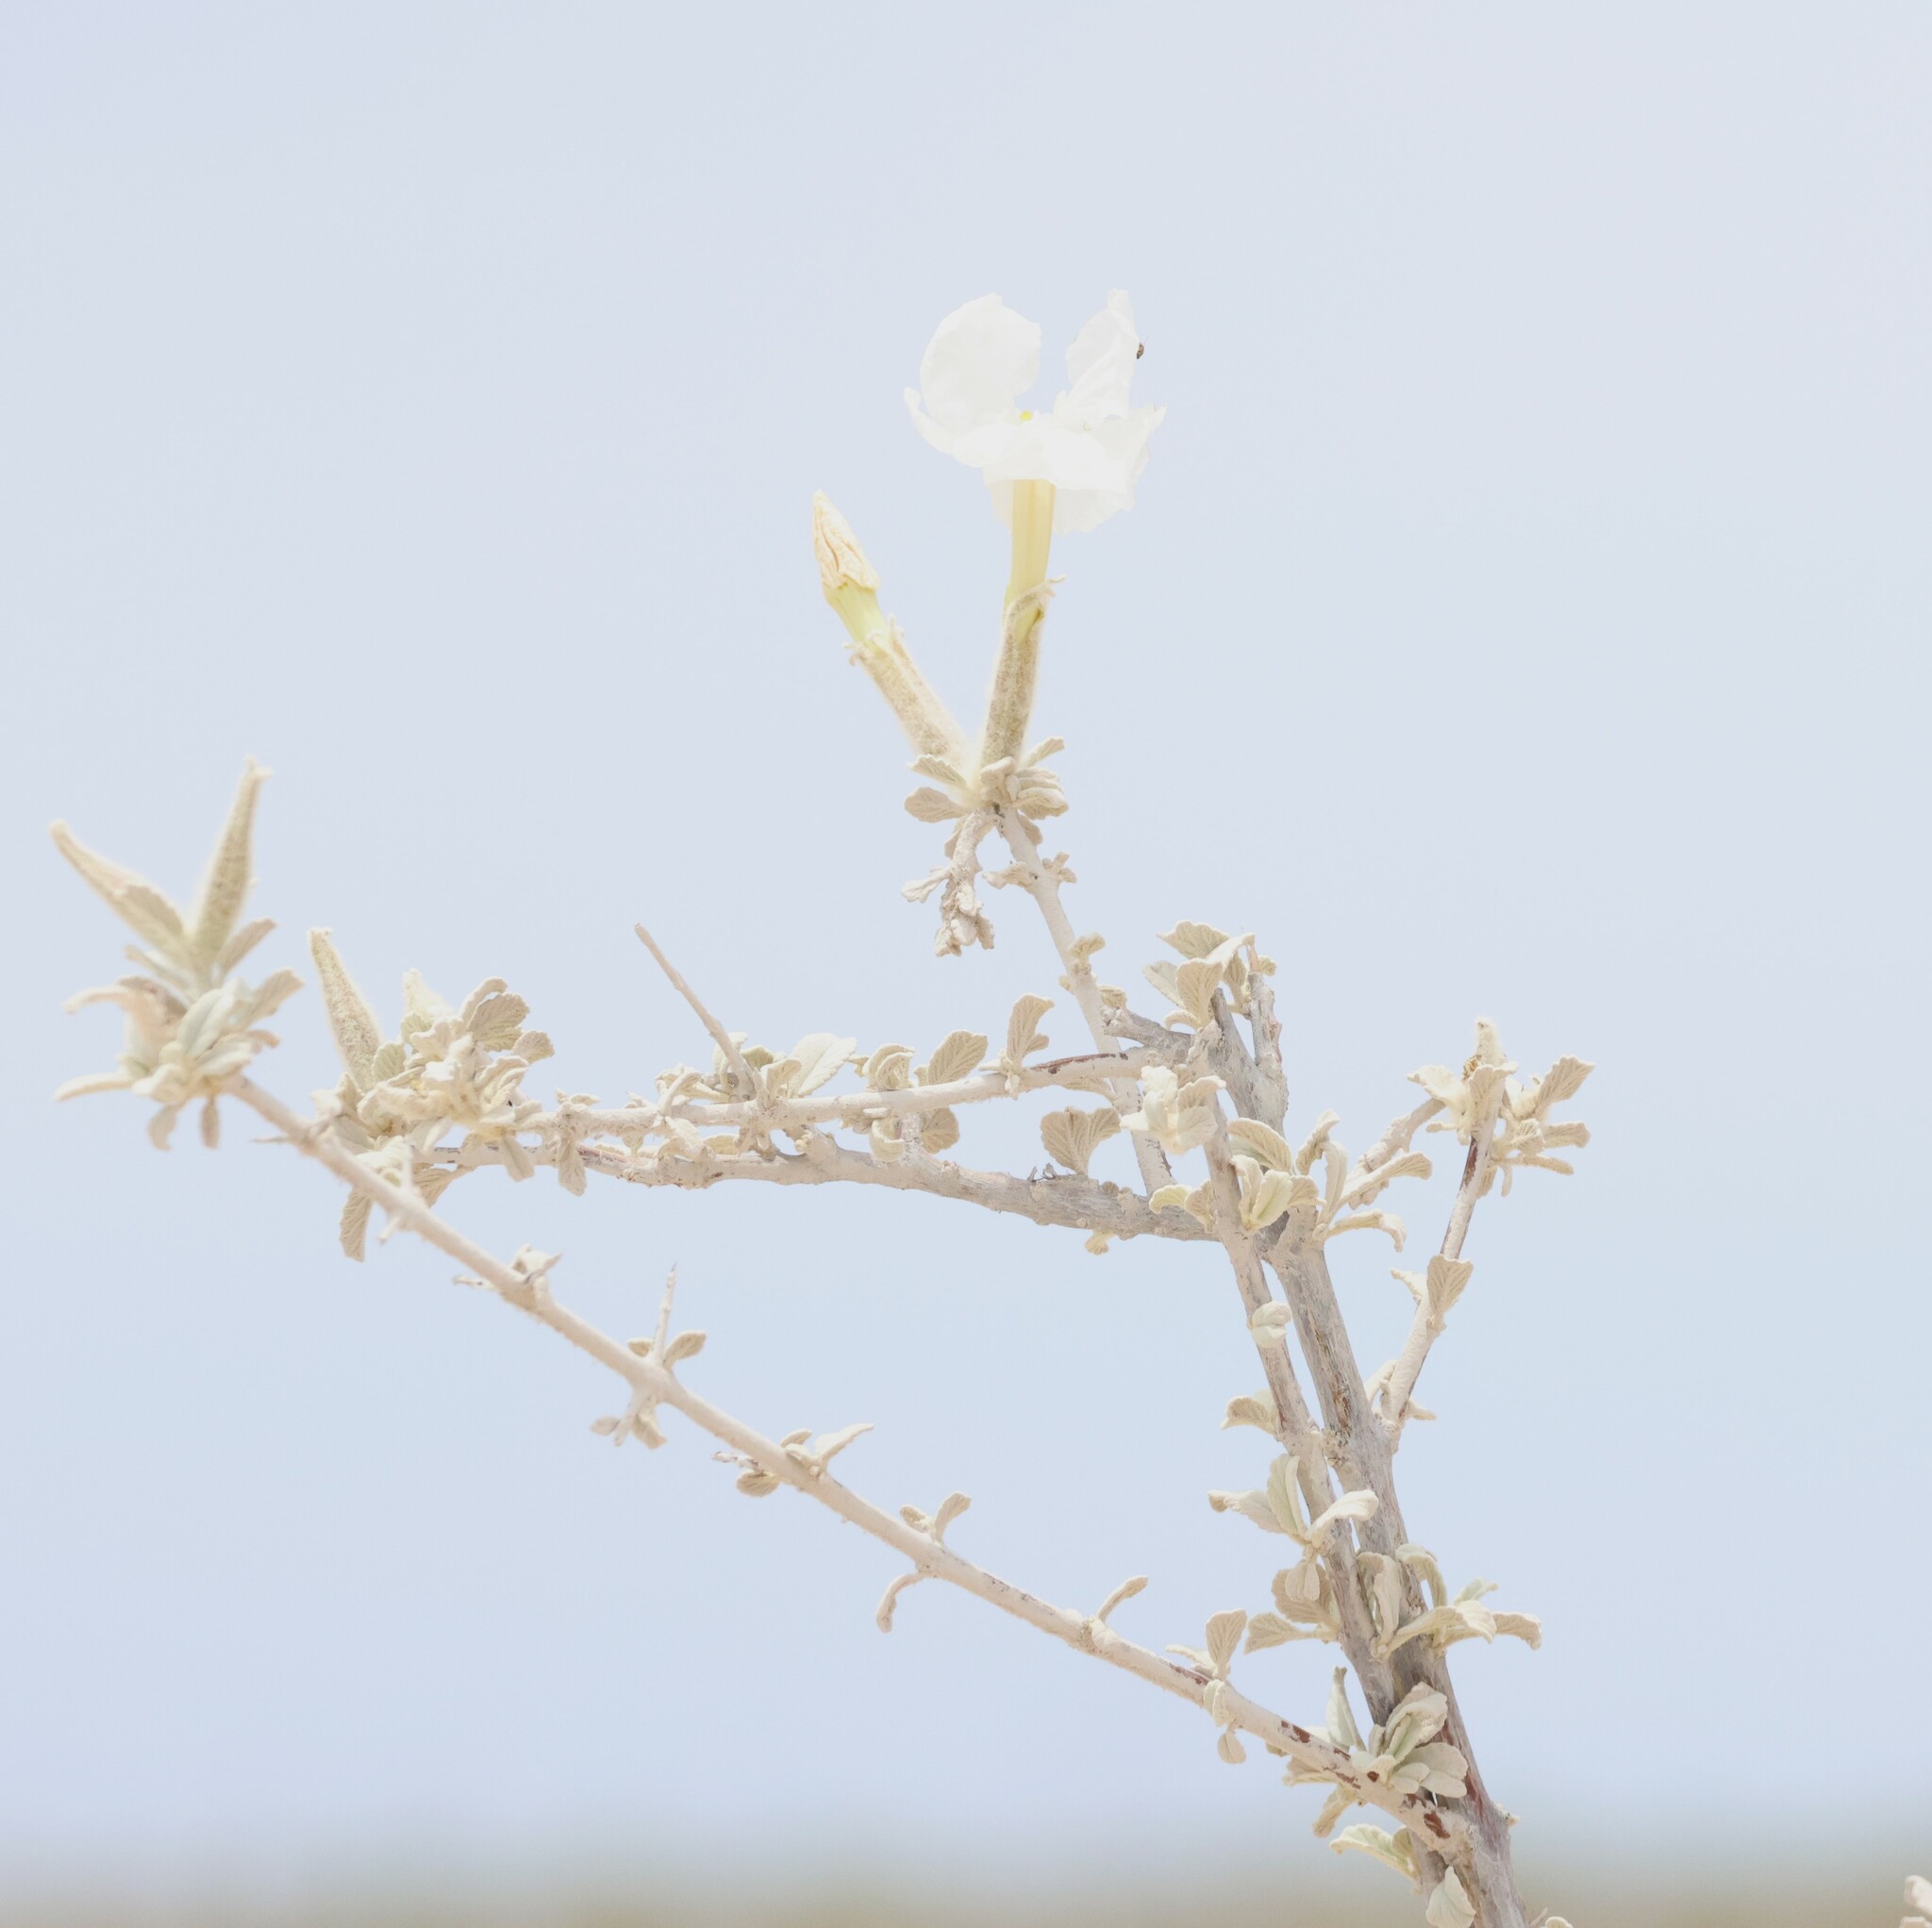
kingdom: Plantae
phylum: Tracheophyta
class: Magnoliopsida
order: Lamiales
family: Bignoniaceae
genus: Catophractes
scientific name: Catophractes alexandri
